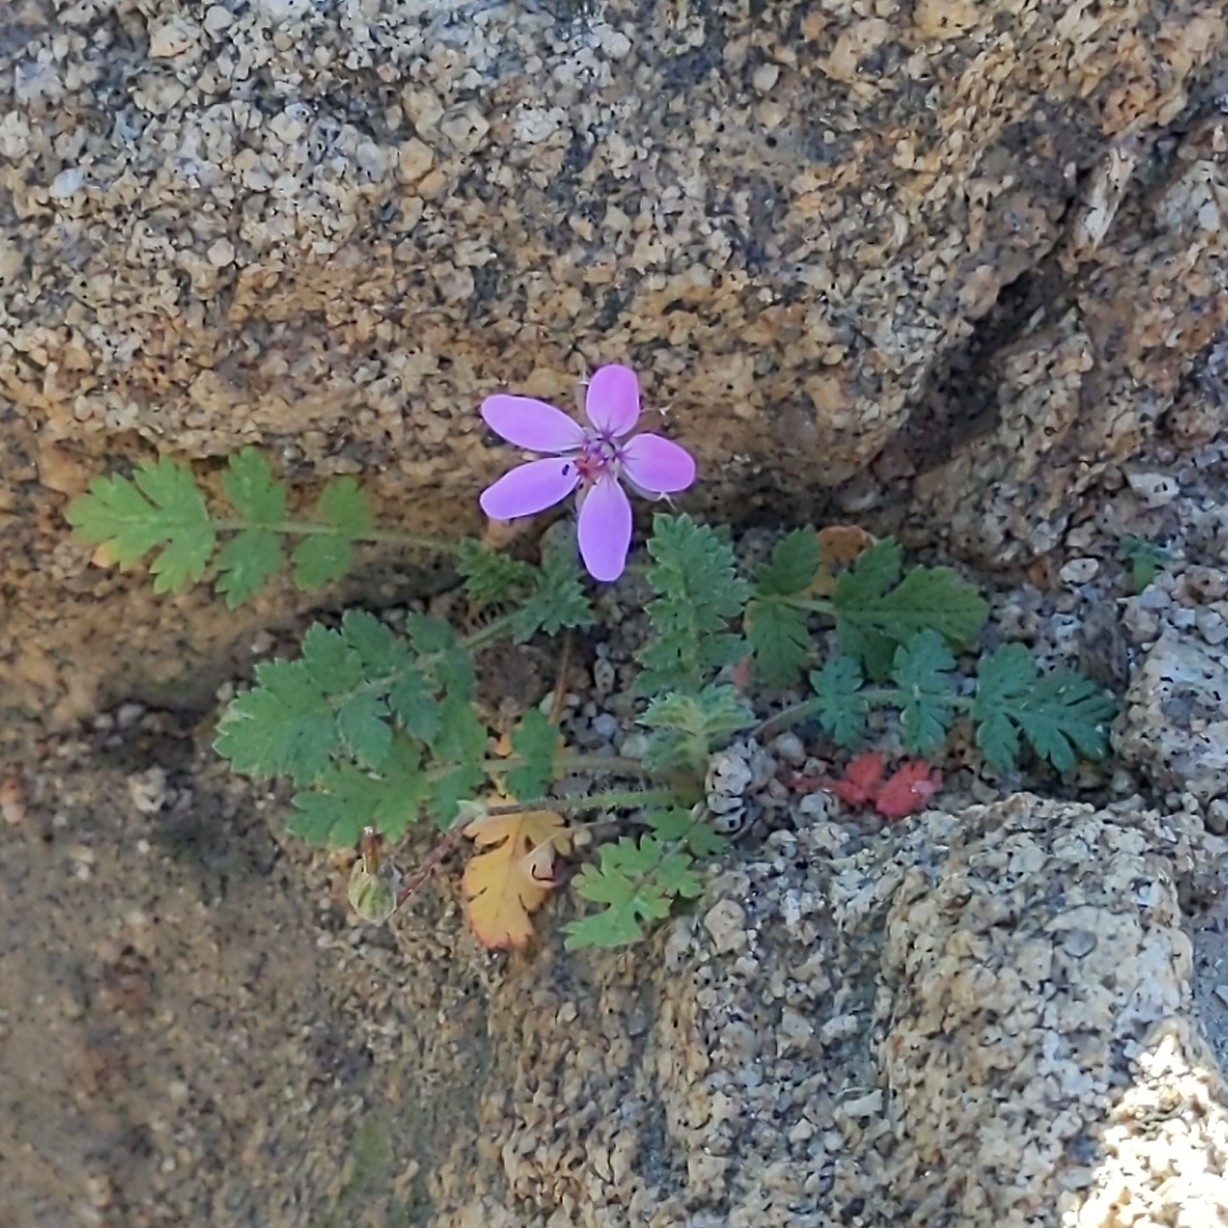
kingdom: Plantae
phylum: Tracheophyta
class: Magnoliopsida
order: Geraniales
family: Geraniaceae
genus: Erodium
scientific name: Erodium cicutarium
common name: Common stork's-bill
